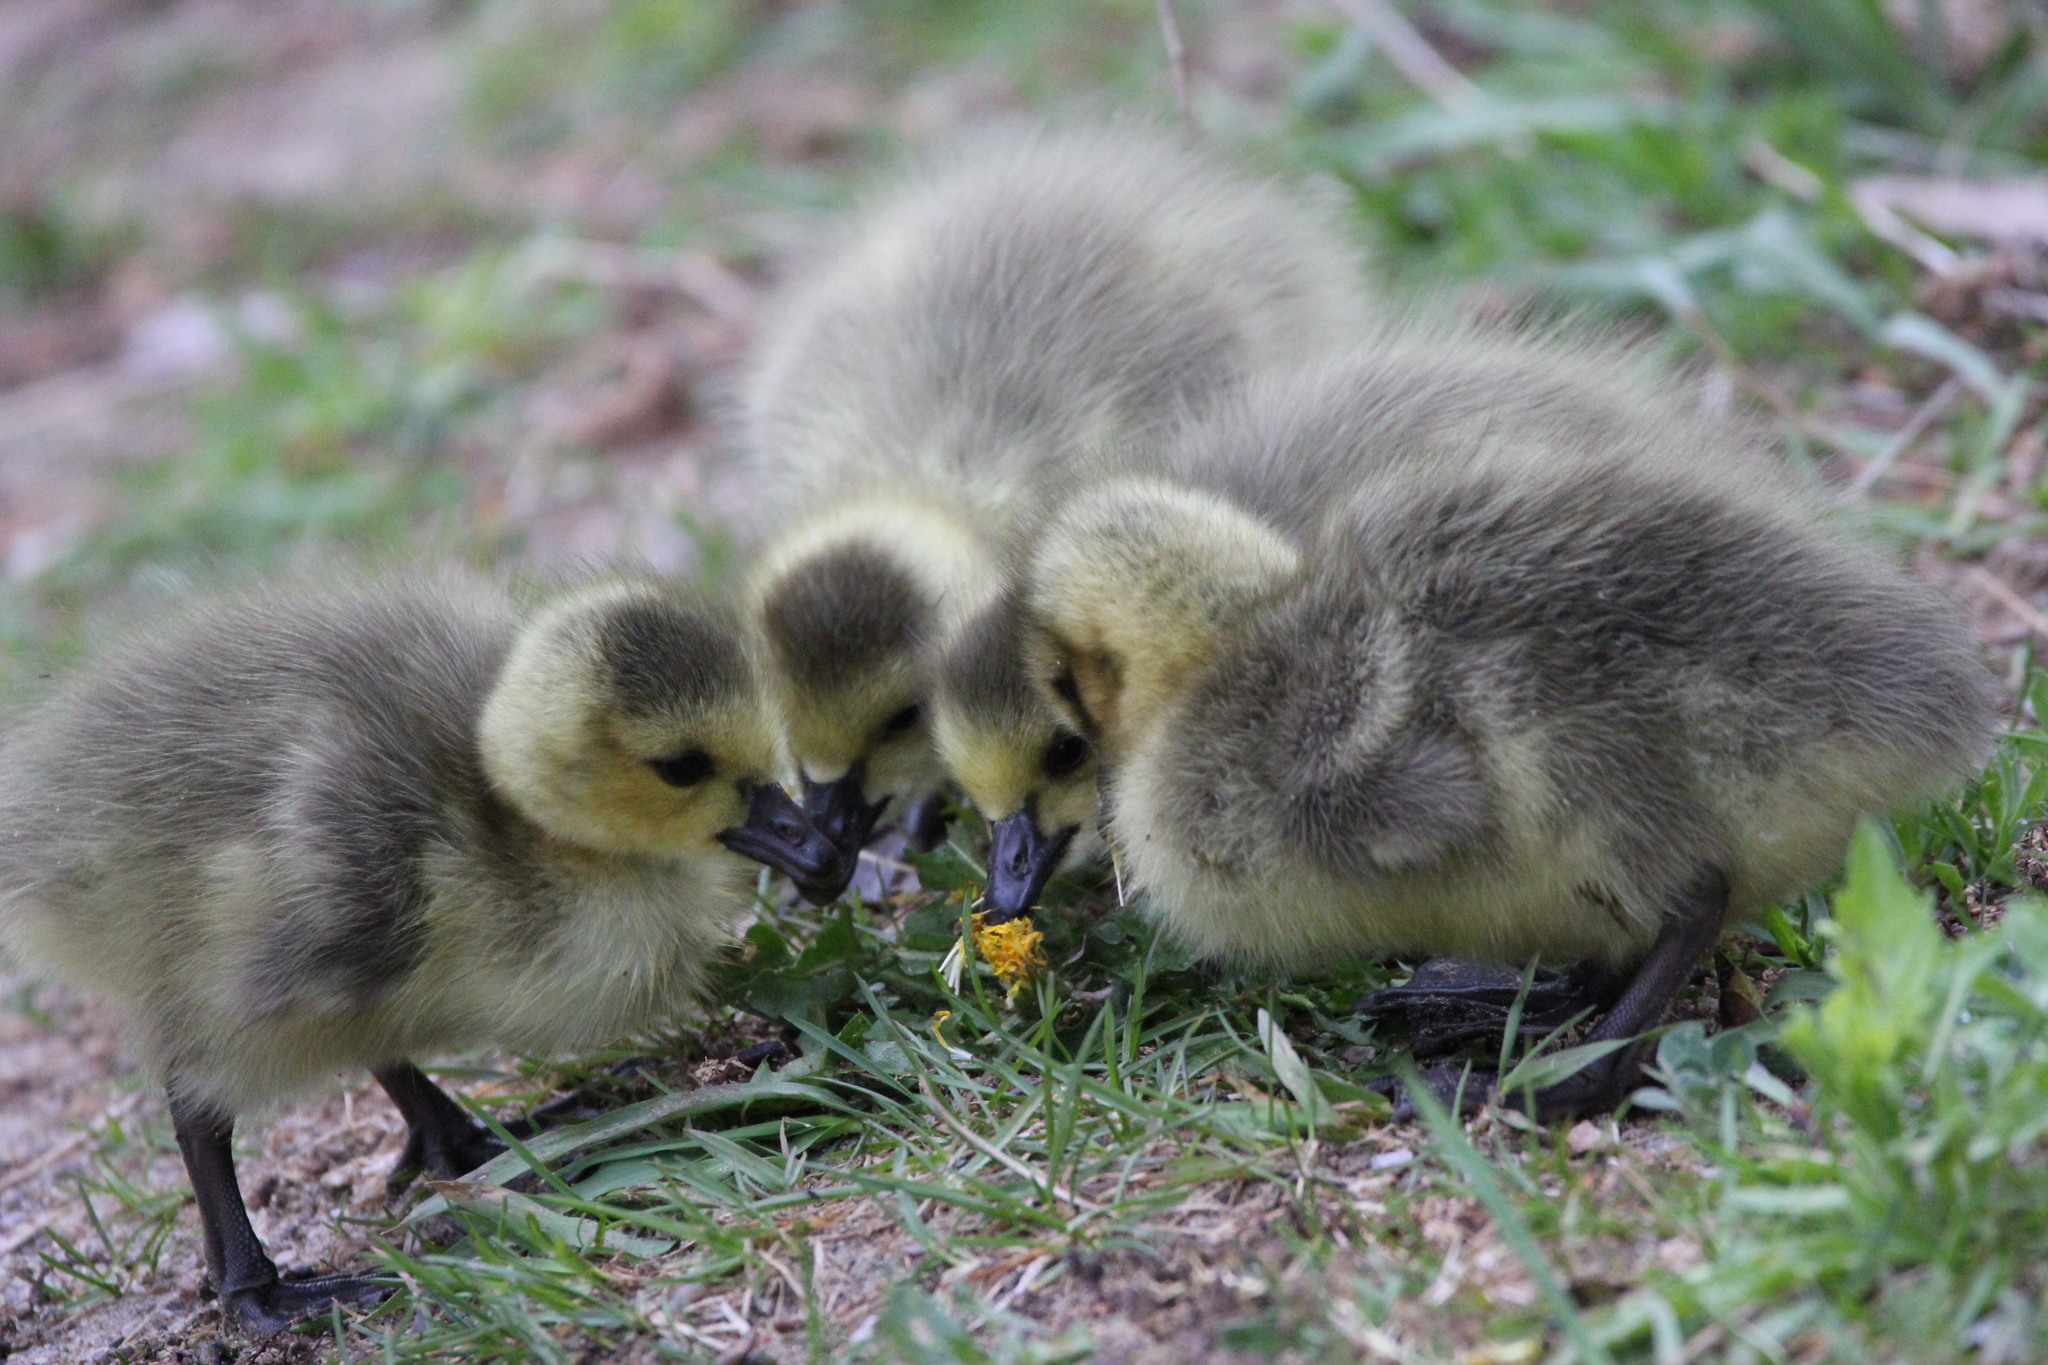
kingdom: Animalia
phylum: Chordata
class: Aves
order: Anseriformes
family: Anatidae
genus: Branta
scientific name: Branta canadensis
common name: Canada goose
